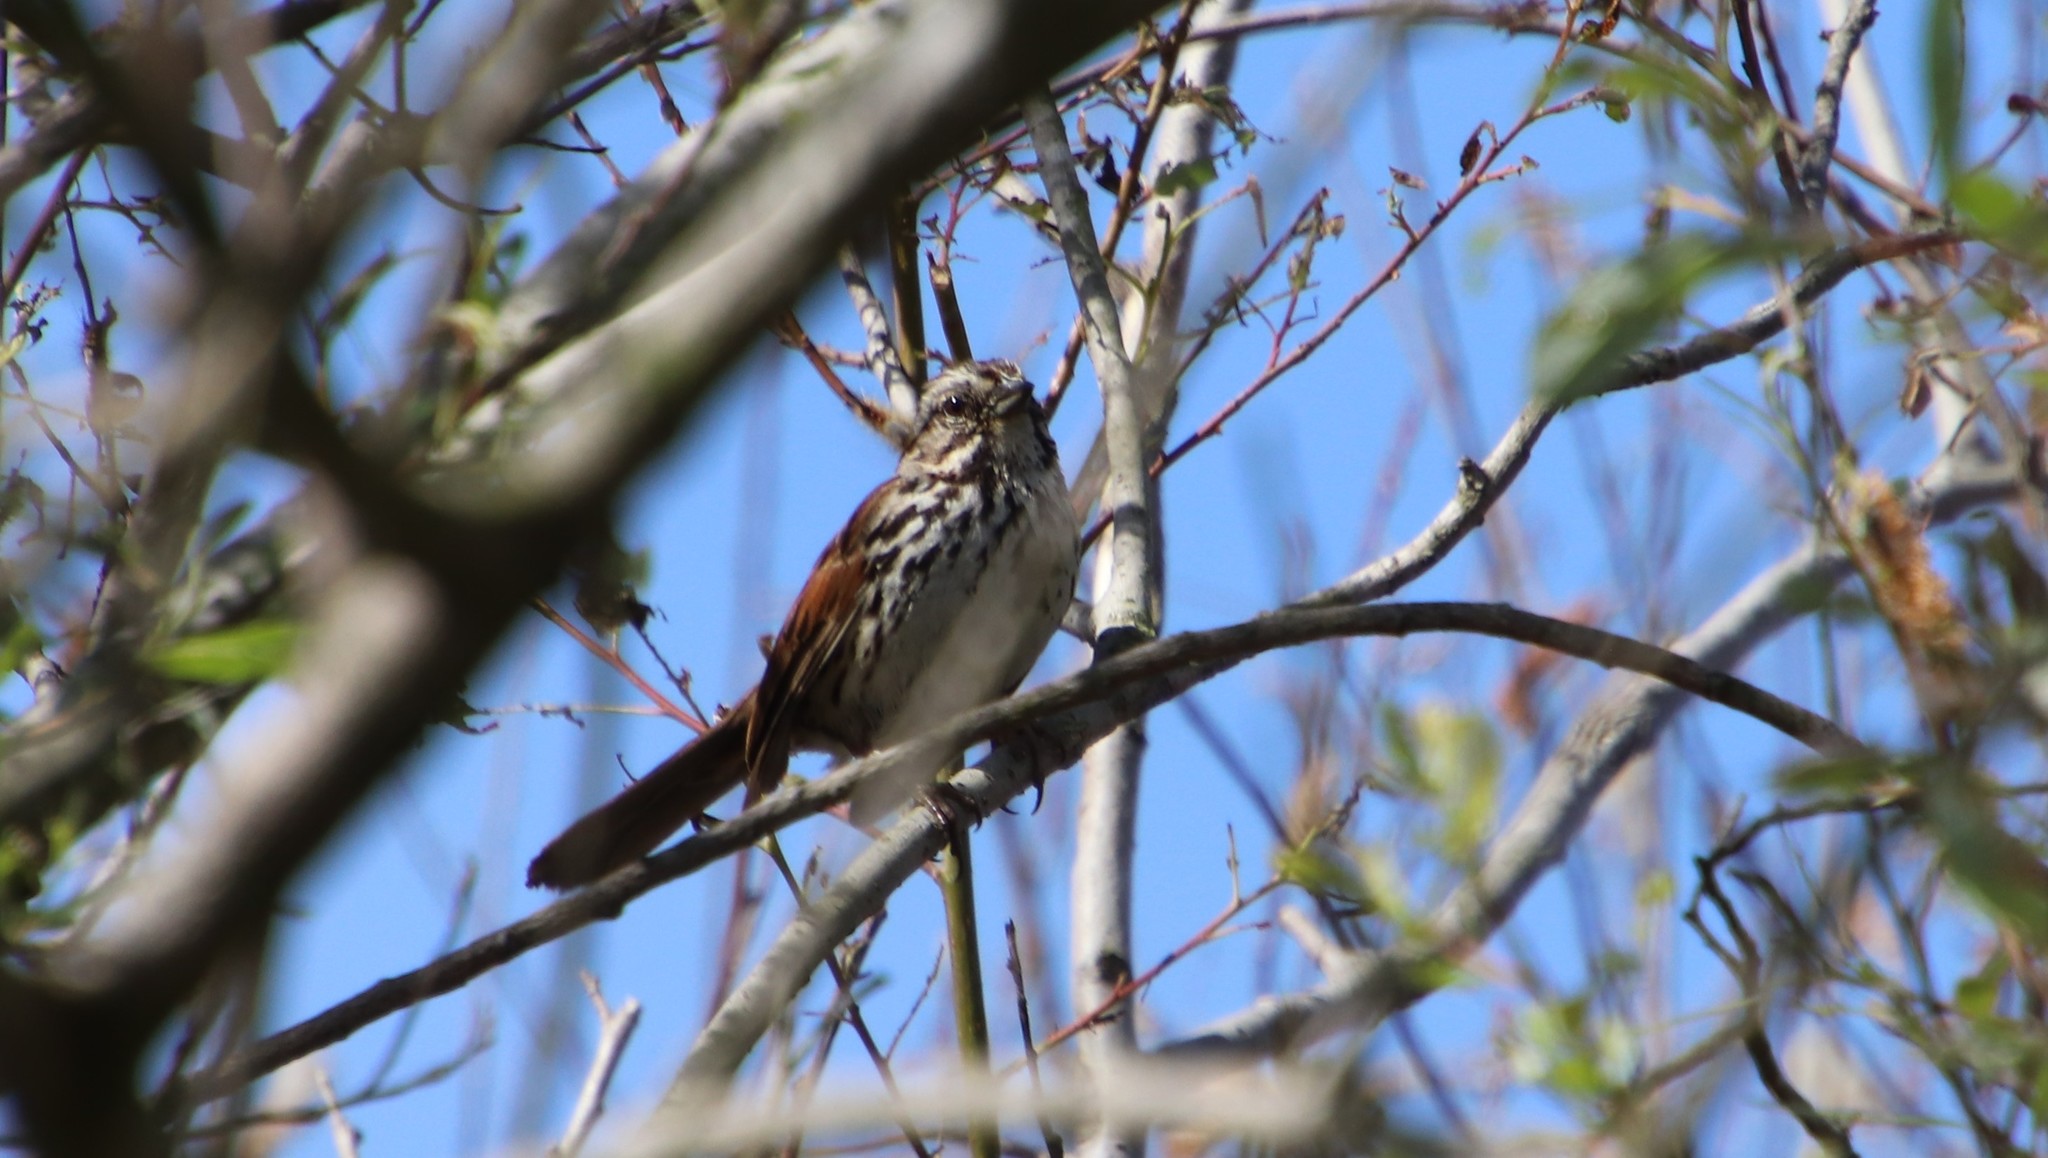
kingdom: Animalia
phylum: Chordata
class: Aves
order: Passeriformes
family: Passerellidae
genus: Melospiza
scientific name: Melospiza melodia
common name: Song sparrow
